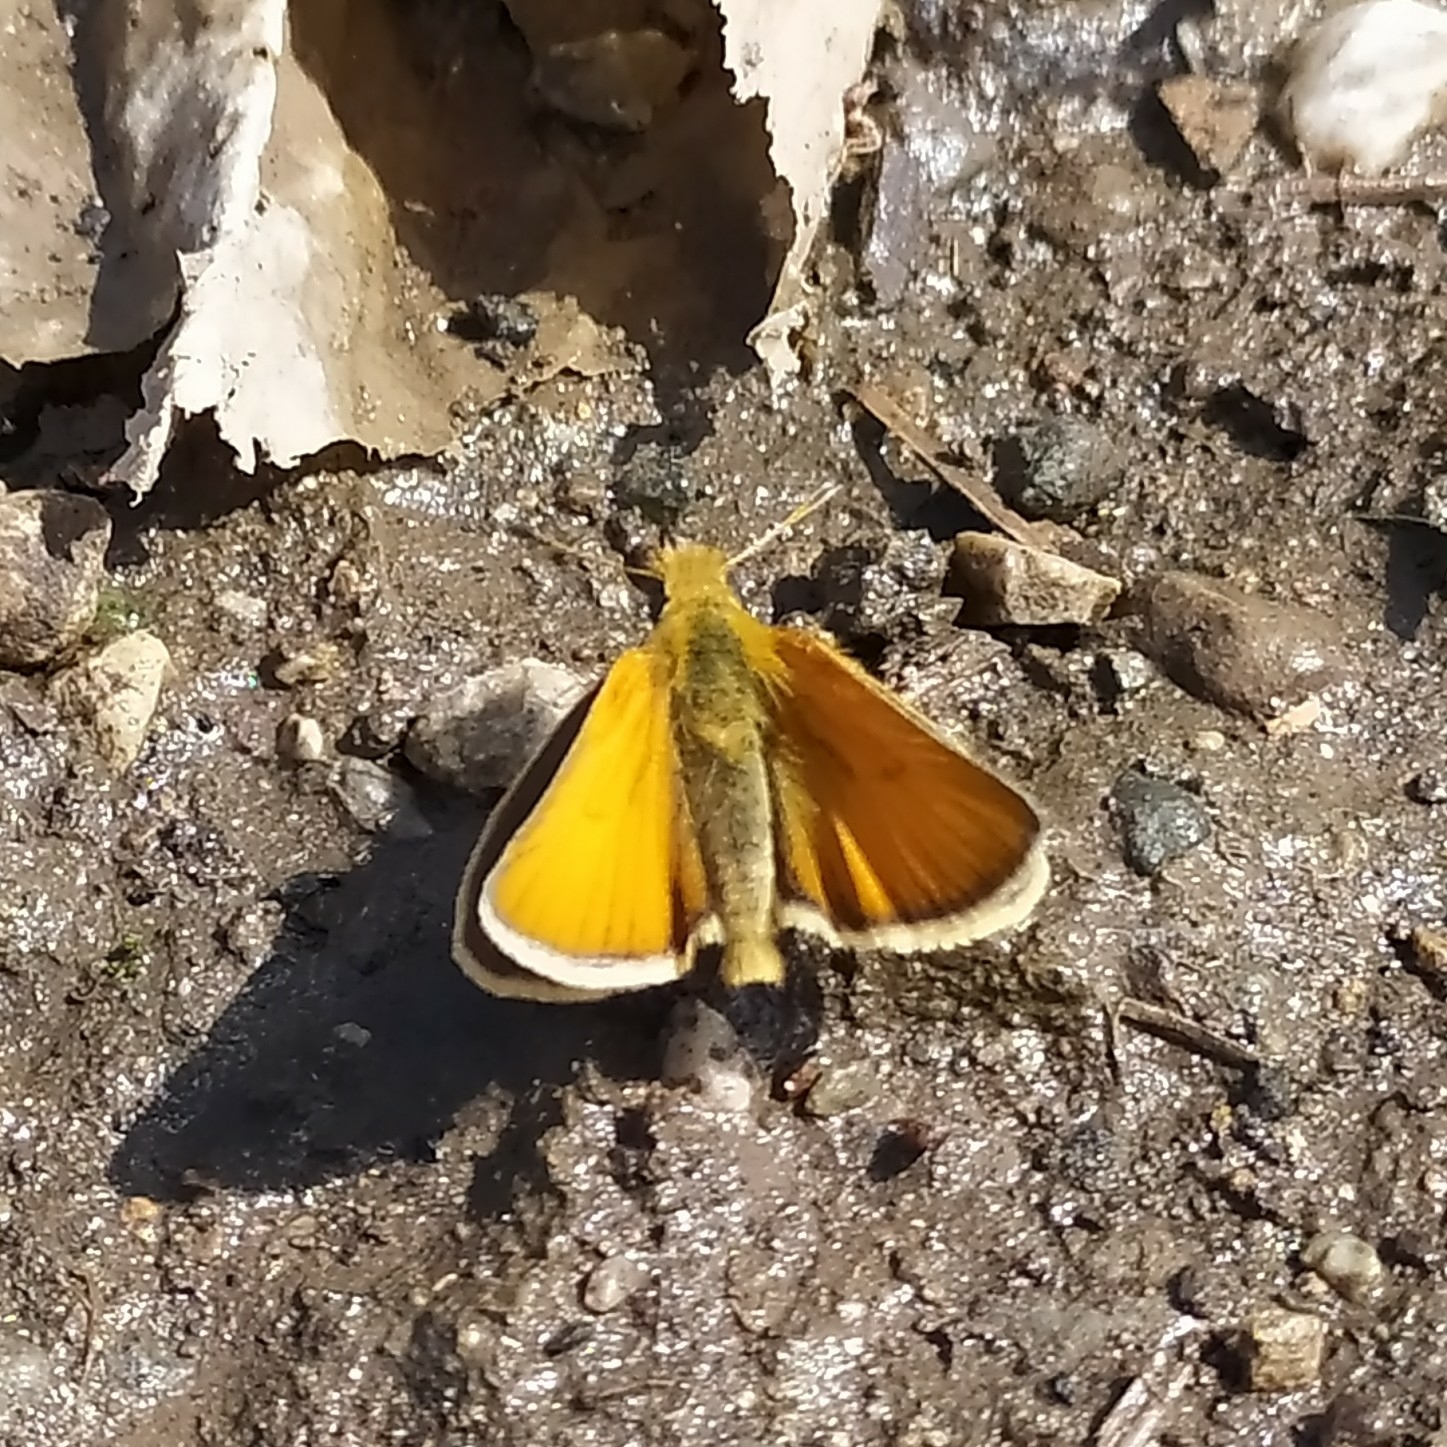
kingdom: Animalia
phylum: Arthropoda
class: Insecta
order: Lepidoptera
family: Hesperiidae
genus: Thymelicus
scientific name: Thymelicus lineola
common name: Essex skipper
